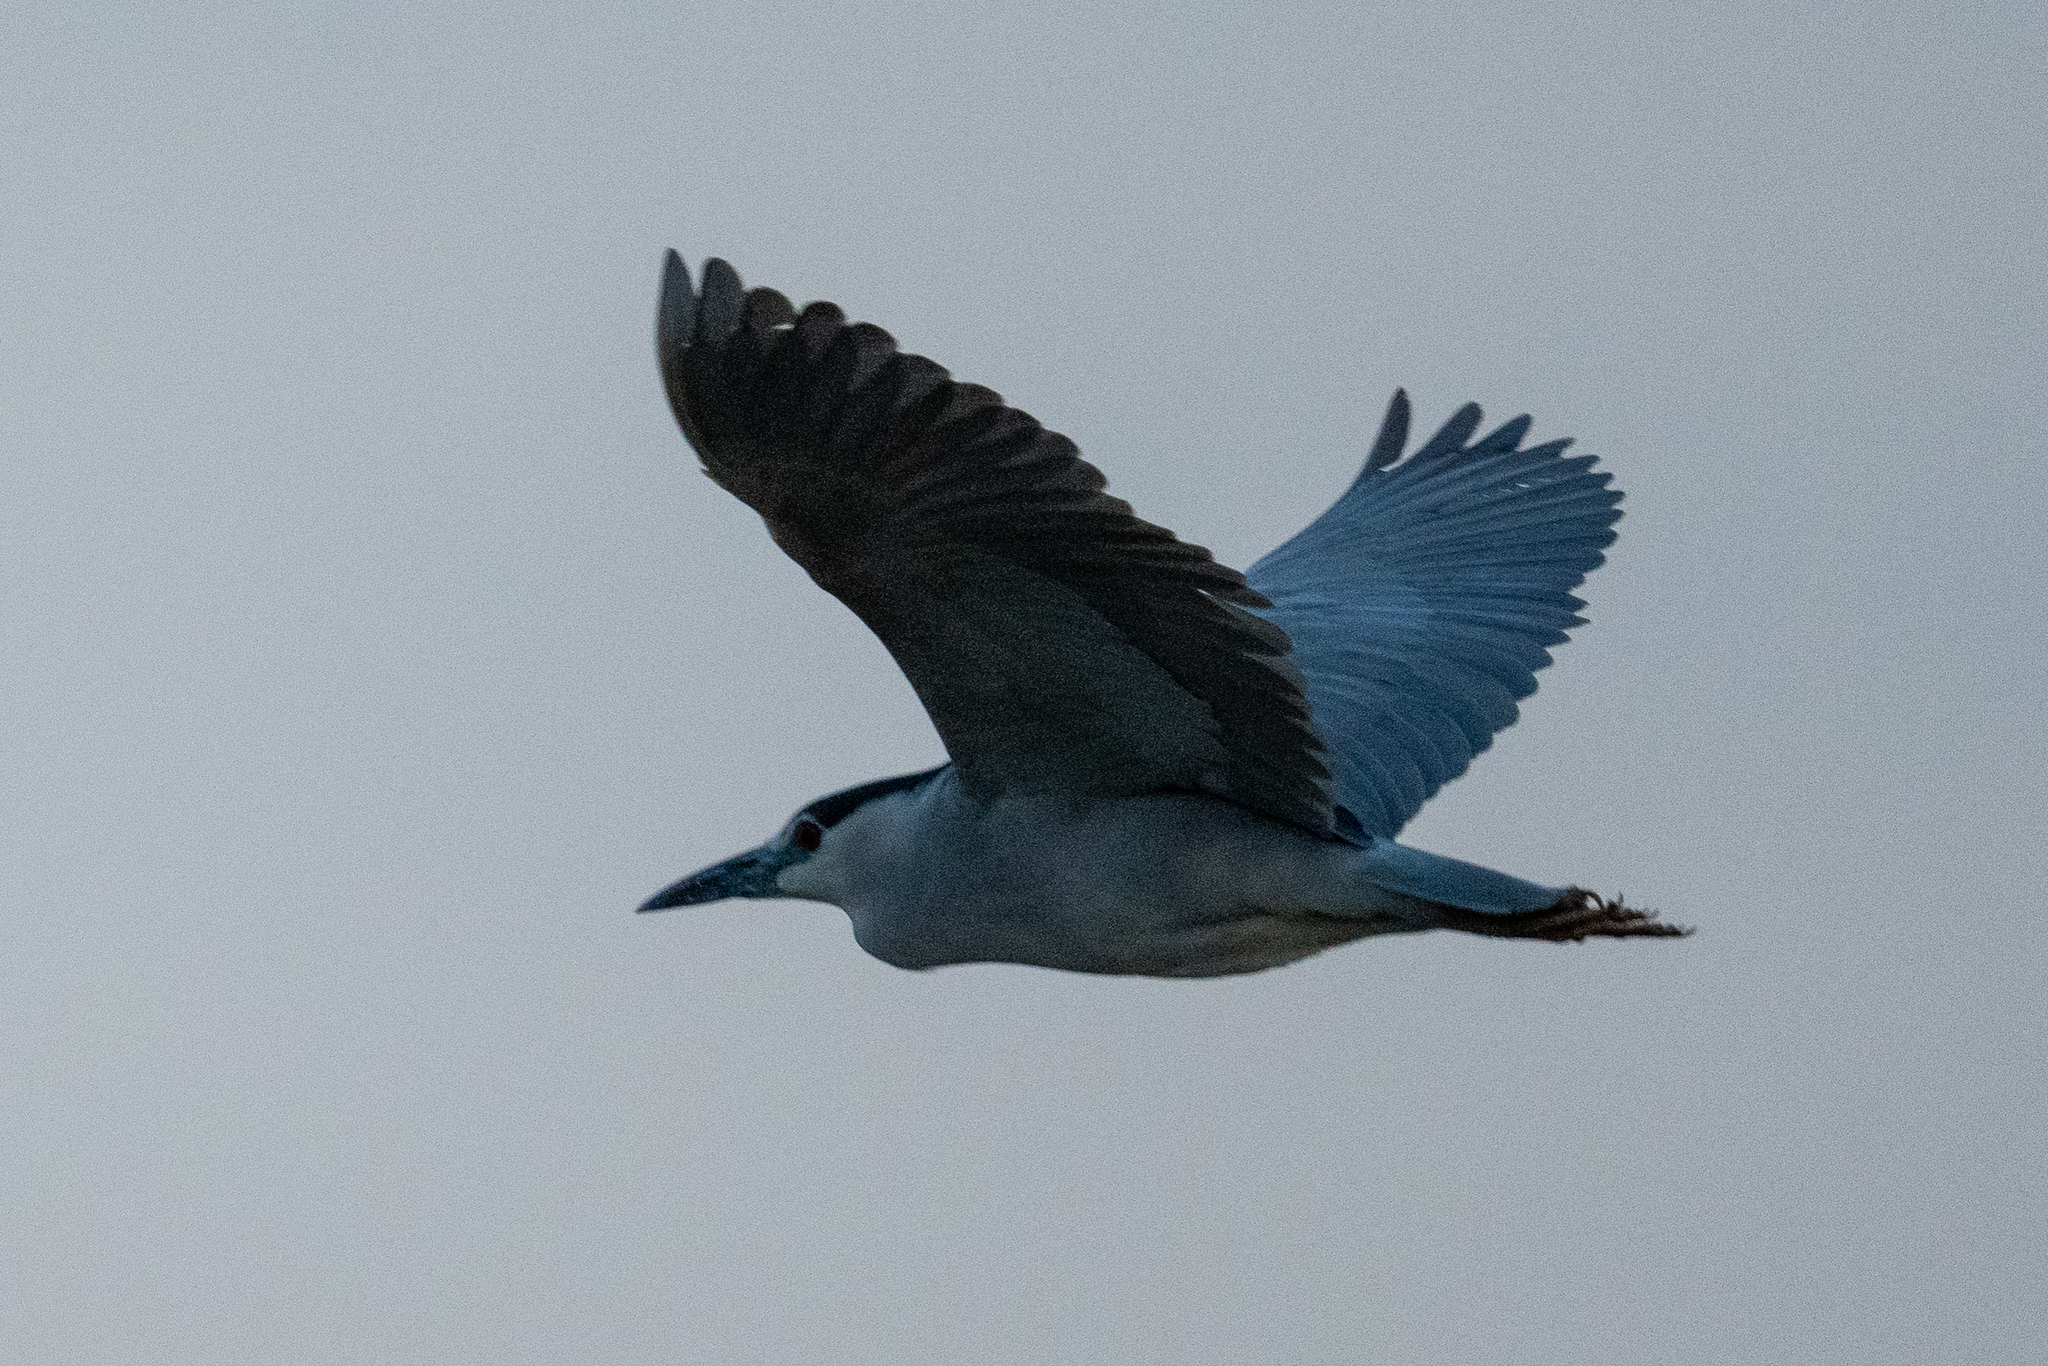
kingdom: Animalia
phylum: Chordata
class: Aves
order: Pelecaniformes
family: Ardeidae
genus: Nycticorax
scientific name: Nycticorax nycticorax
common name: Black-crowned night heron
